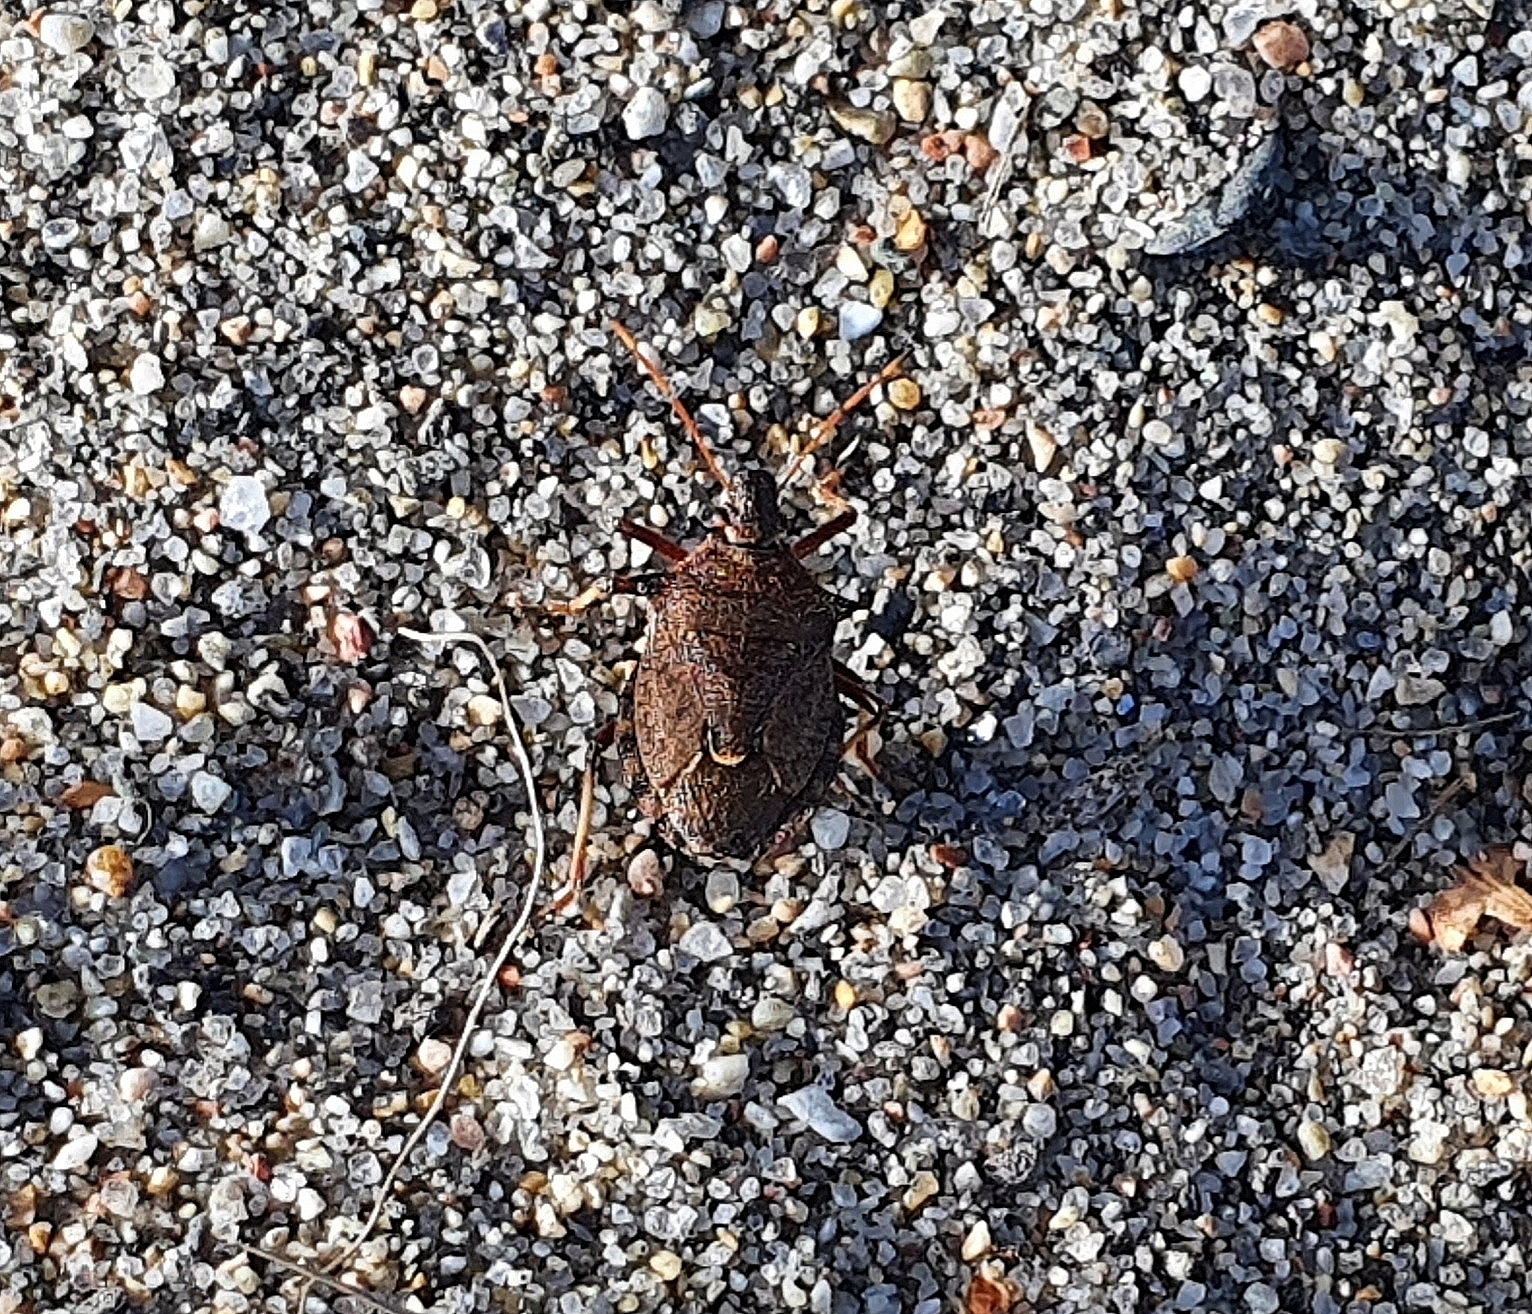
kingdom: Animalia
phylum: Arthropoda
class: Insecta
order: Hemiptera
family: Pentatomidae
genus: Picromerus
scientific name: Picromerus bidens
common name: Spiked shieldbug
